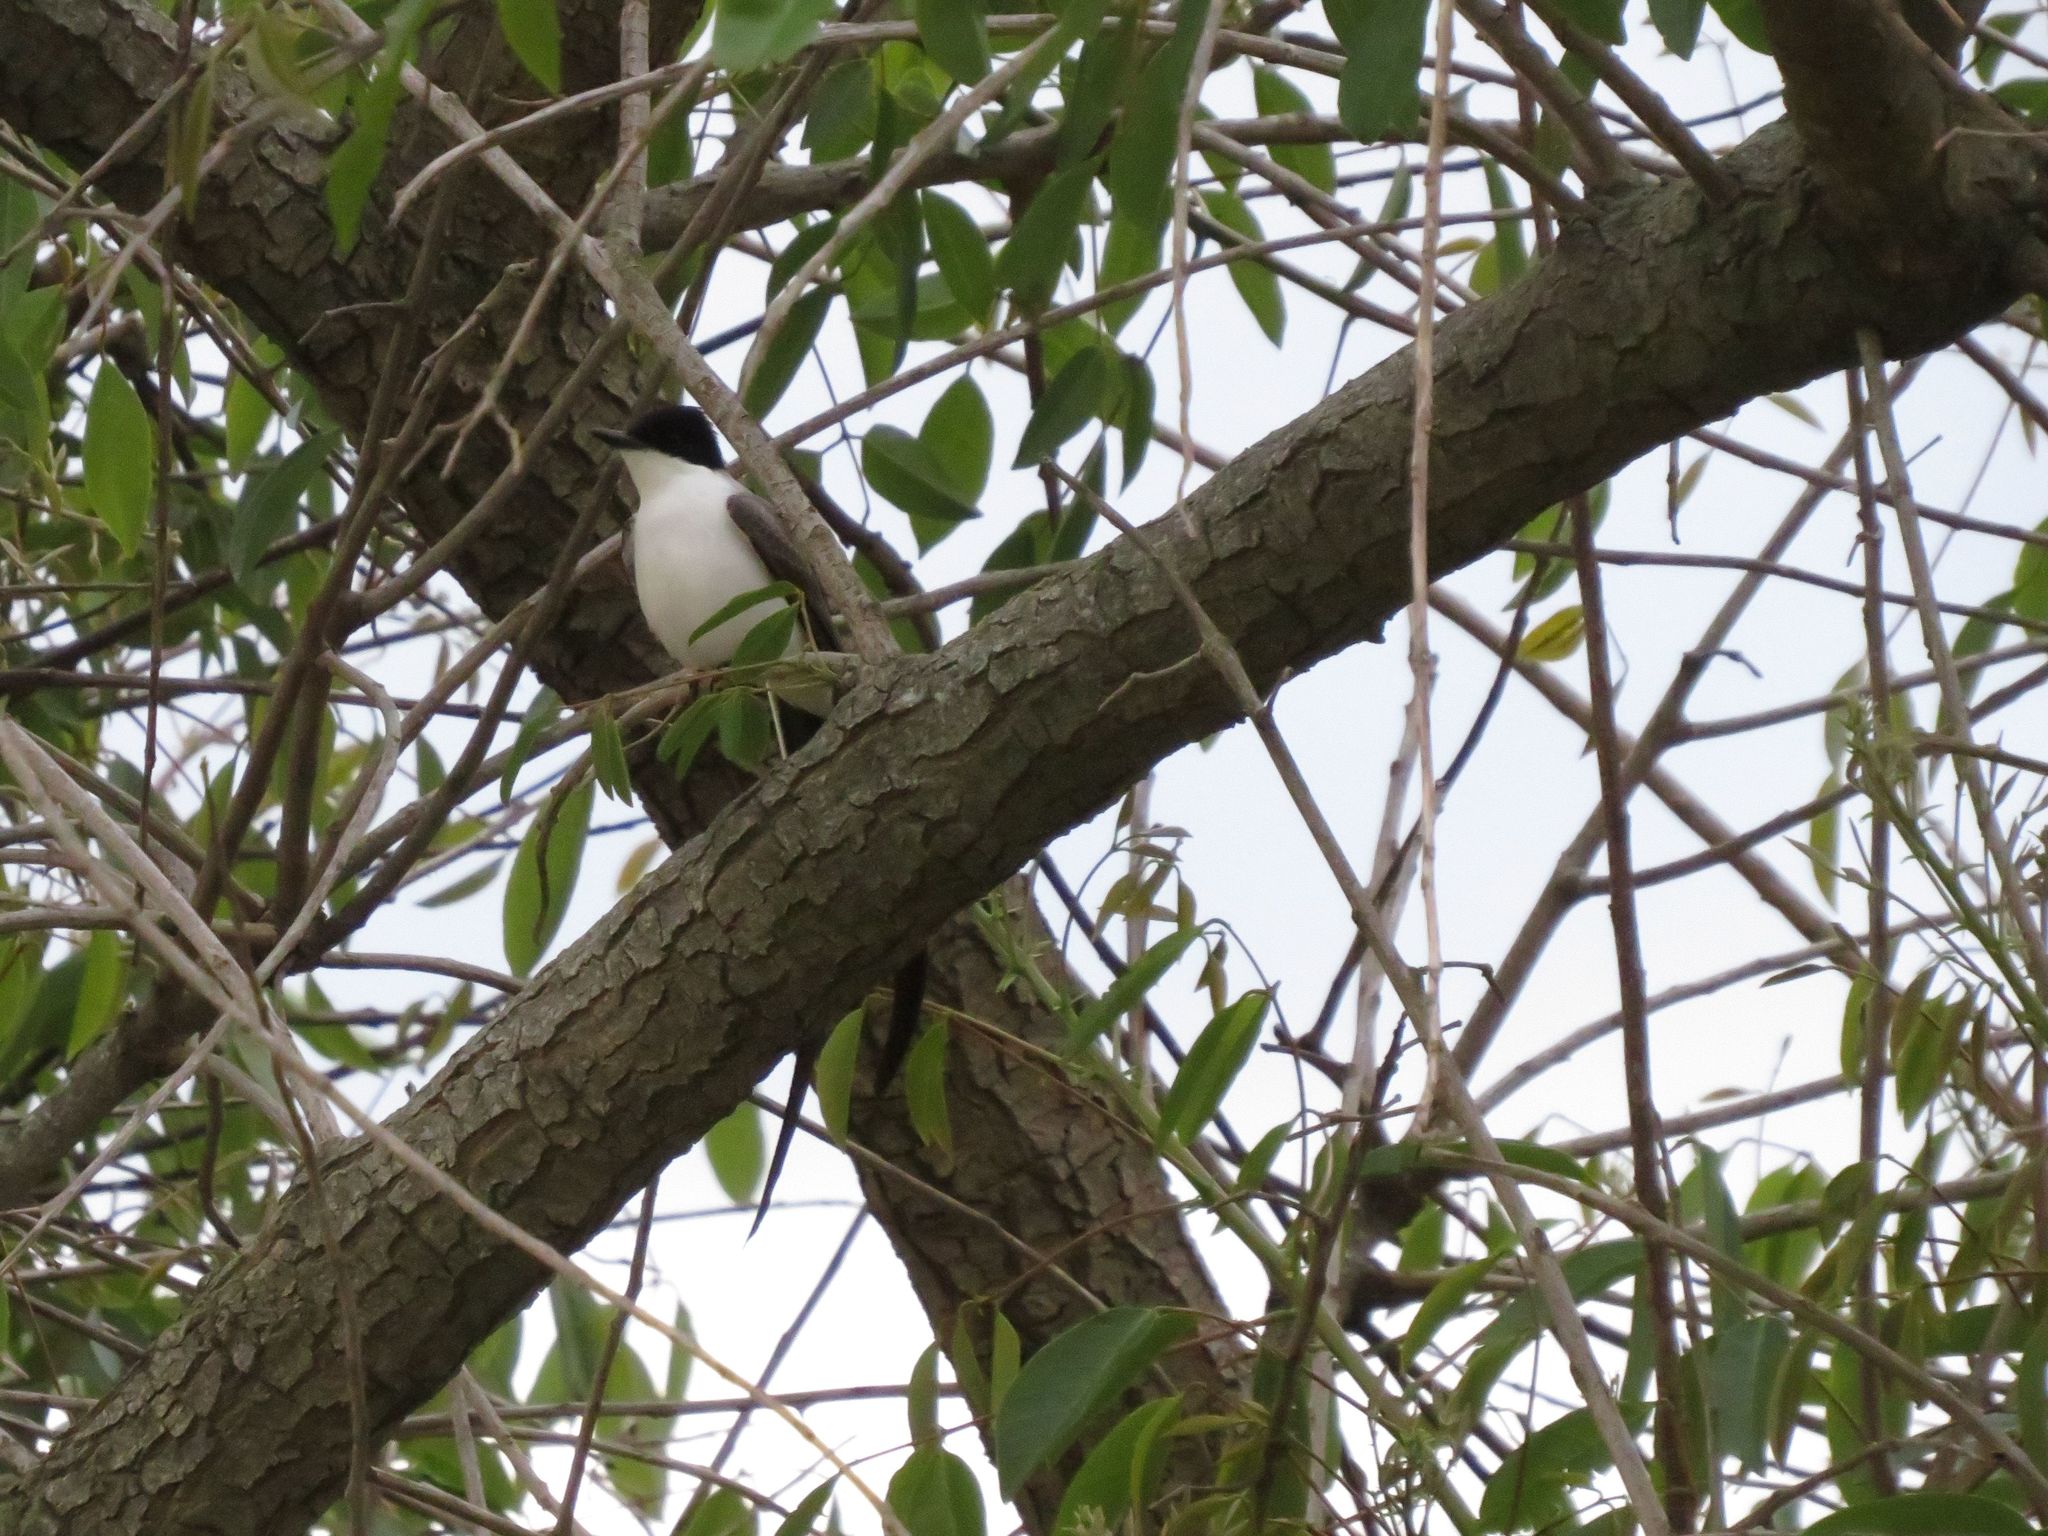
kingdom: Animalia
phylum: Chordata
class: Aves
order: Passeriformes
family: Tyrannidae
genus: Tyrannus
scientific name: Tyrannus savana
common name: Fork-tailed flycatcher
